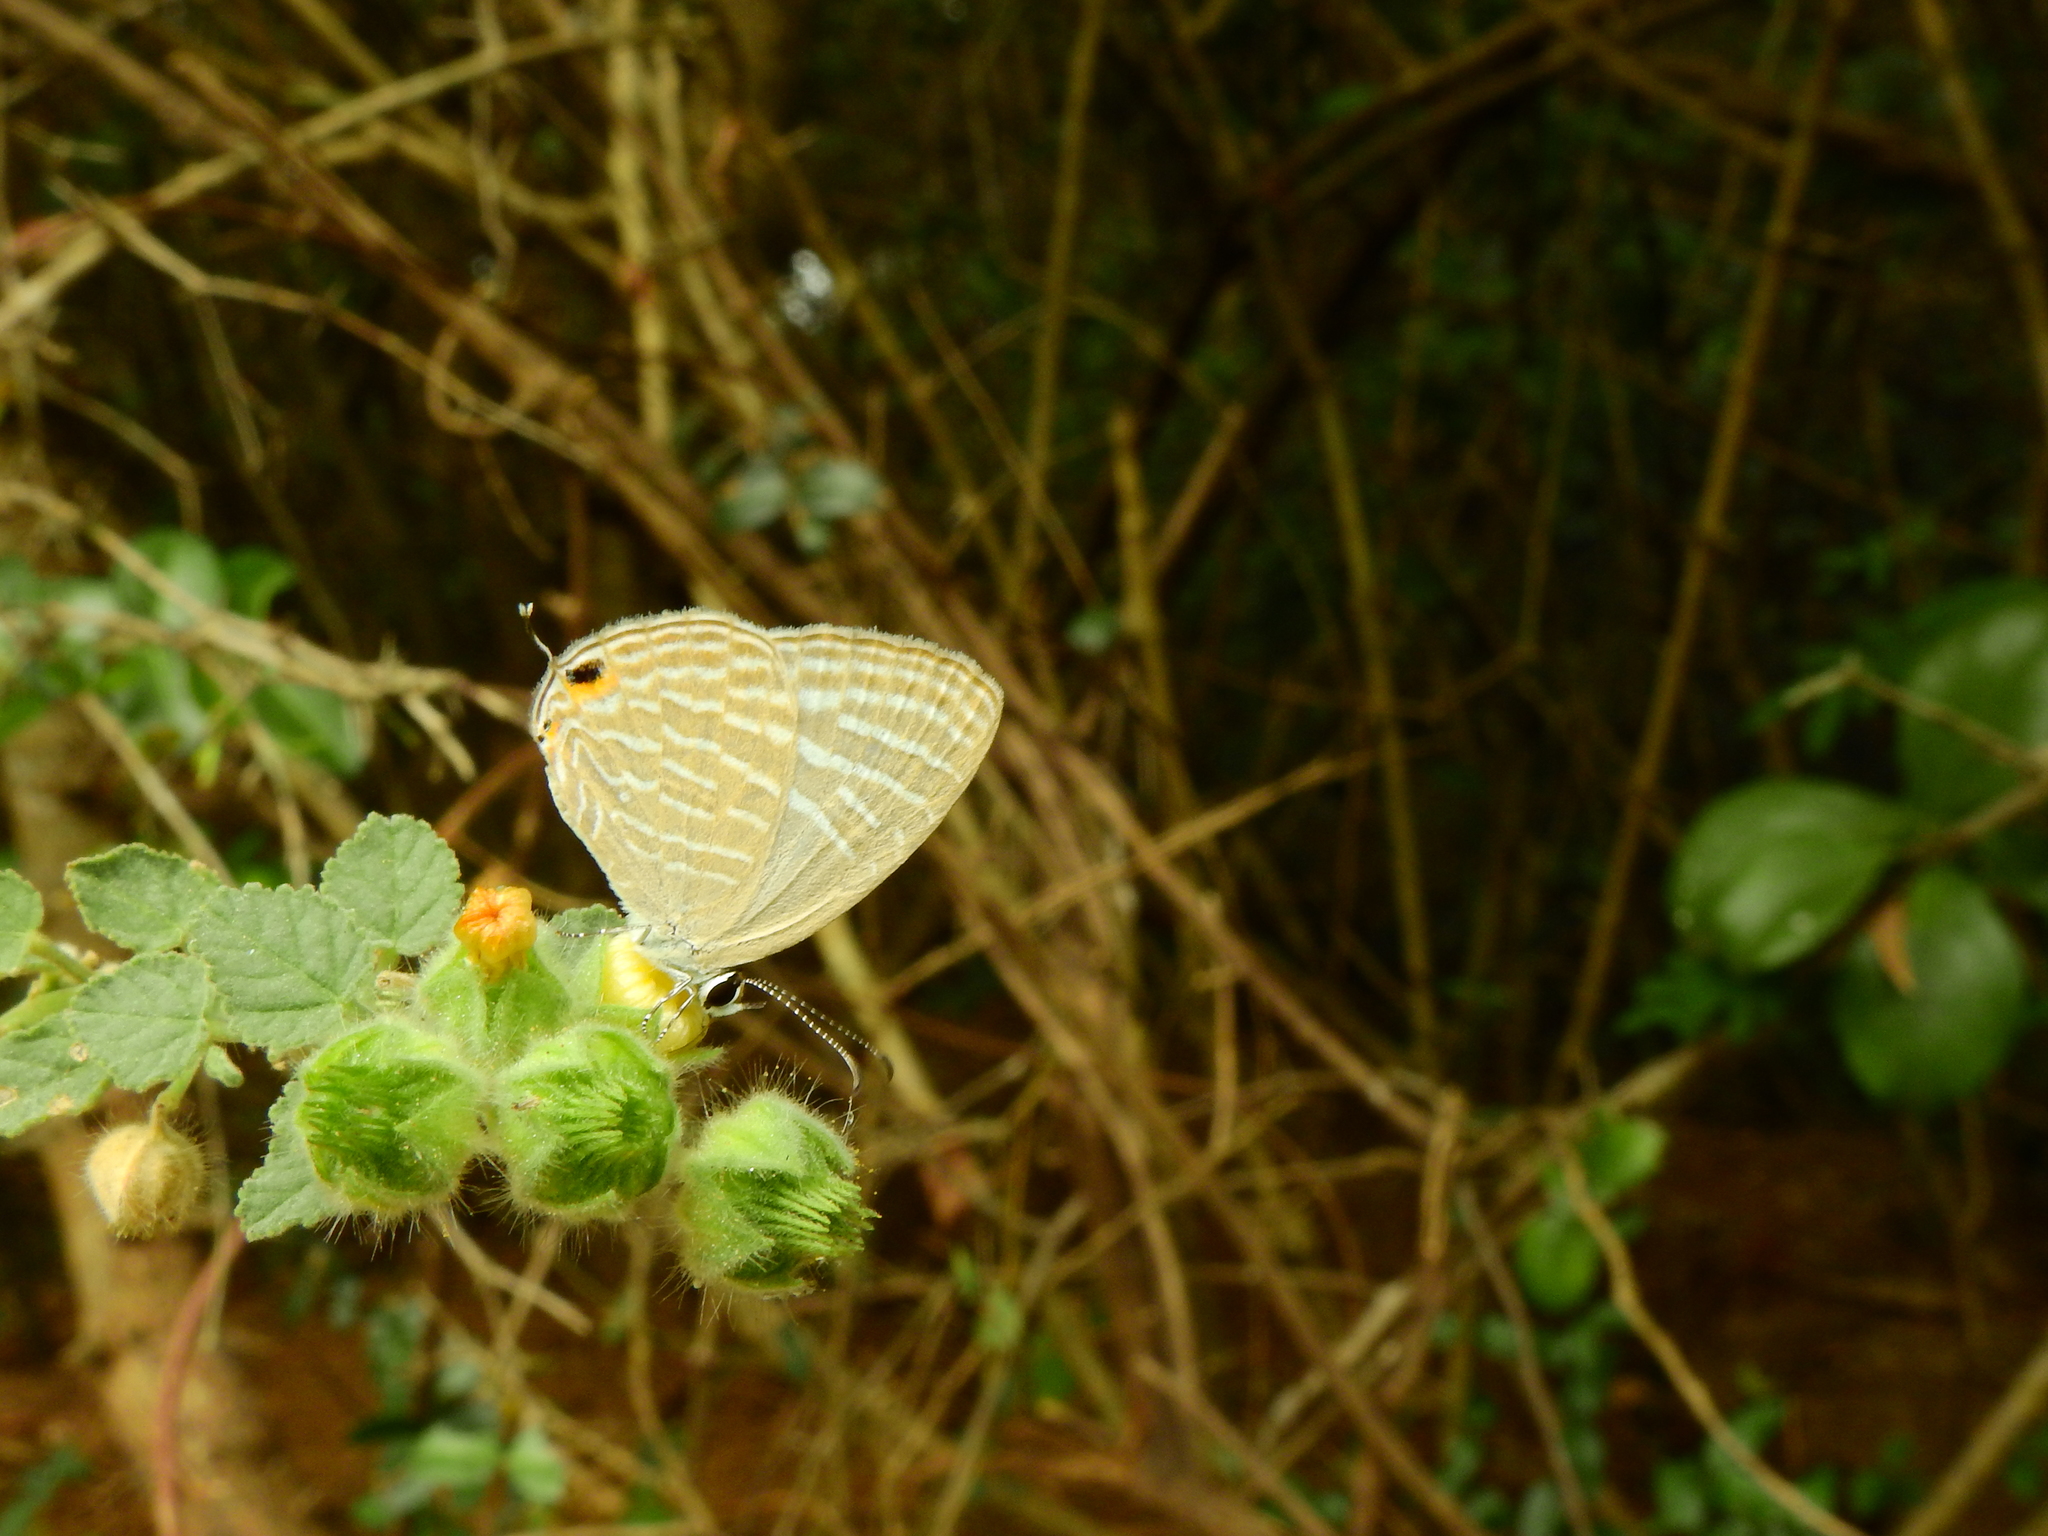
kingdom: Animalia
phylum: Arthropoda
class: Insecta
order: Lepidoptera
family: Lycaenidae
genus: Jamides
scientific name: Jamides celeno
